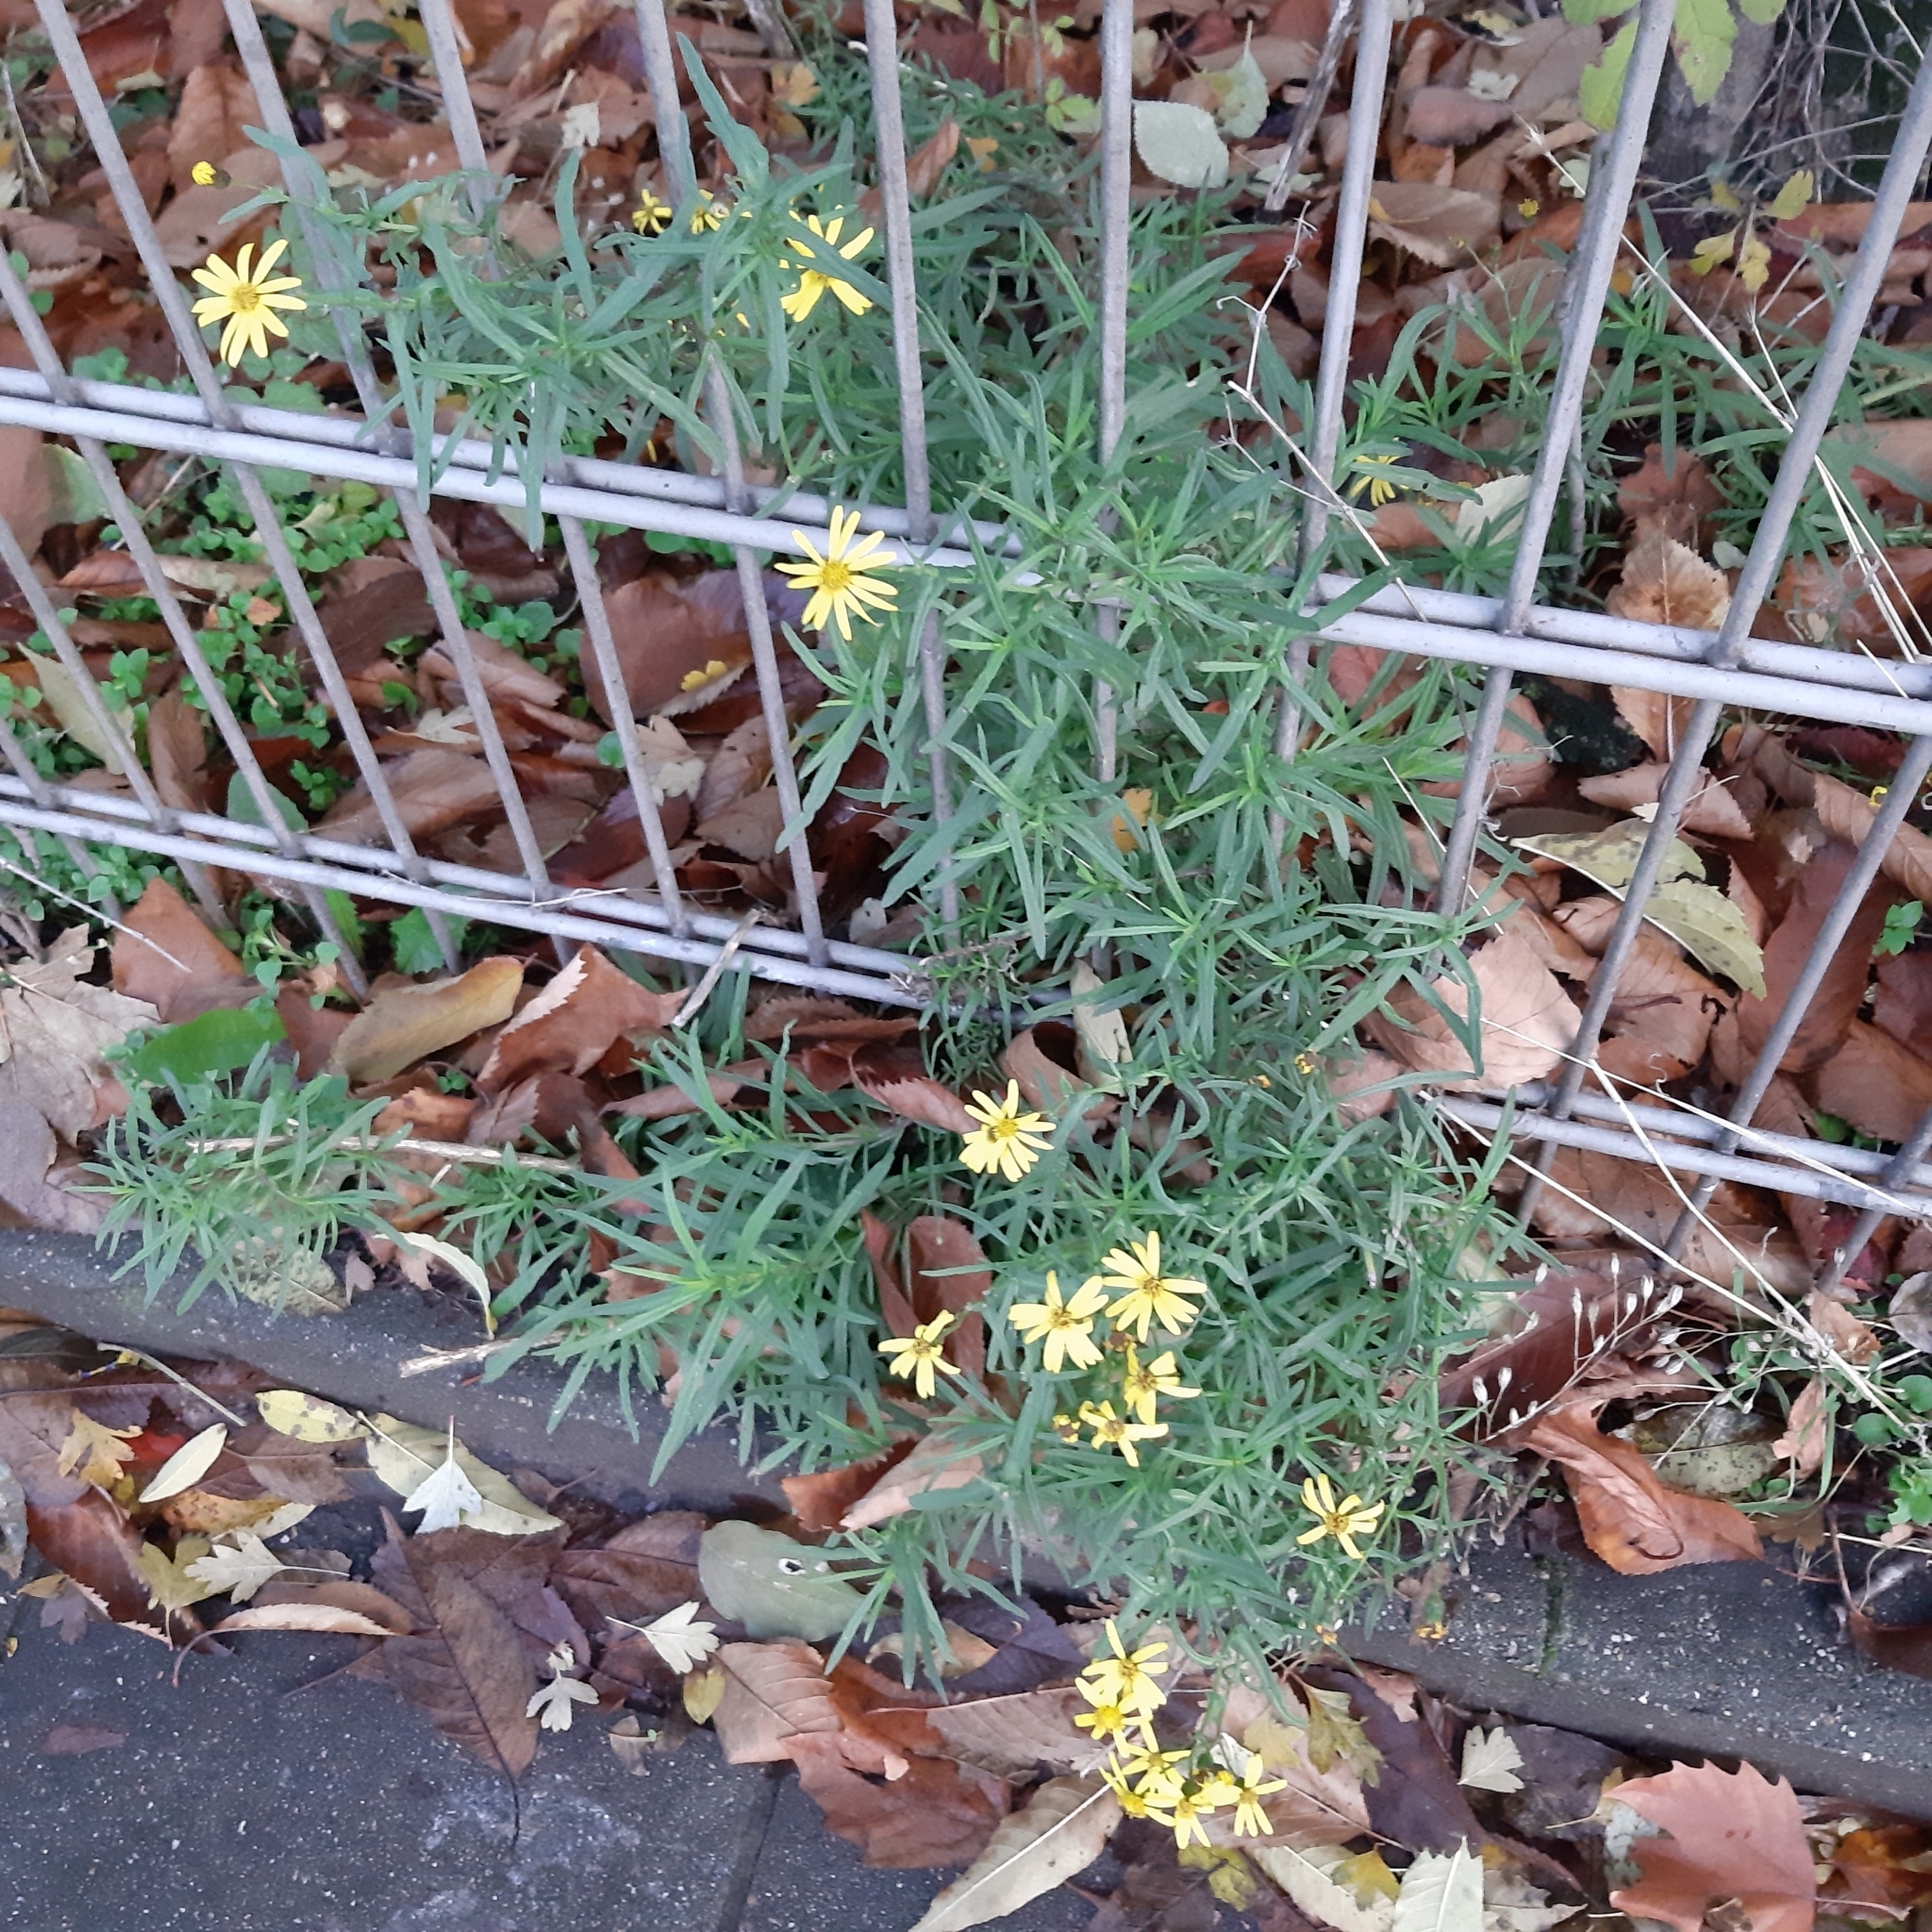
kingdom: Plantae
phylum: Tracheophyta
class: Magnoliopsida
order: Asterales
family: Asteraceae
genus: Senecio
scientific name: Senecio inaequidens
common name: Narrow-leaved ragwort
